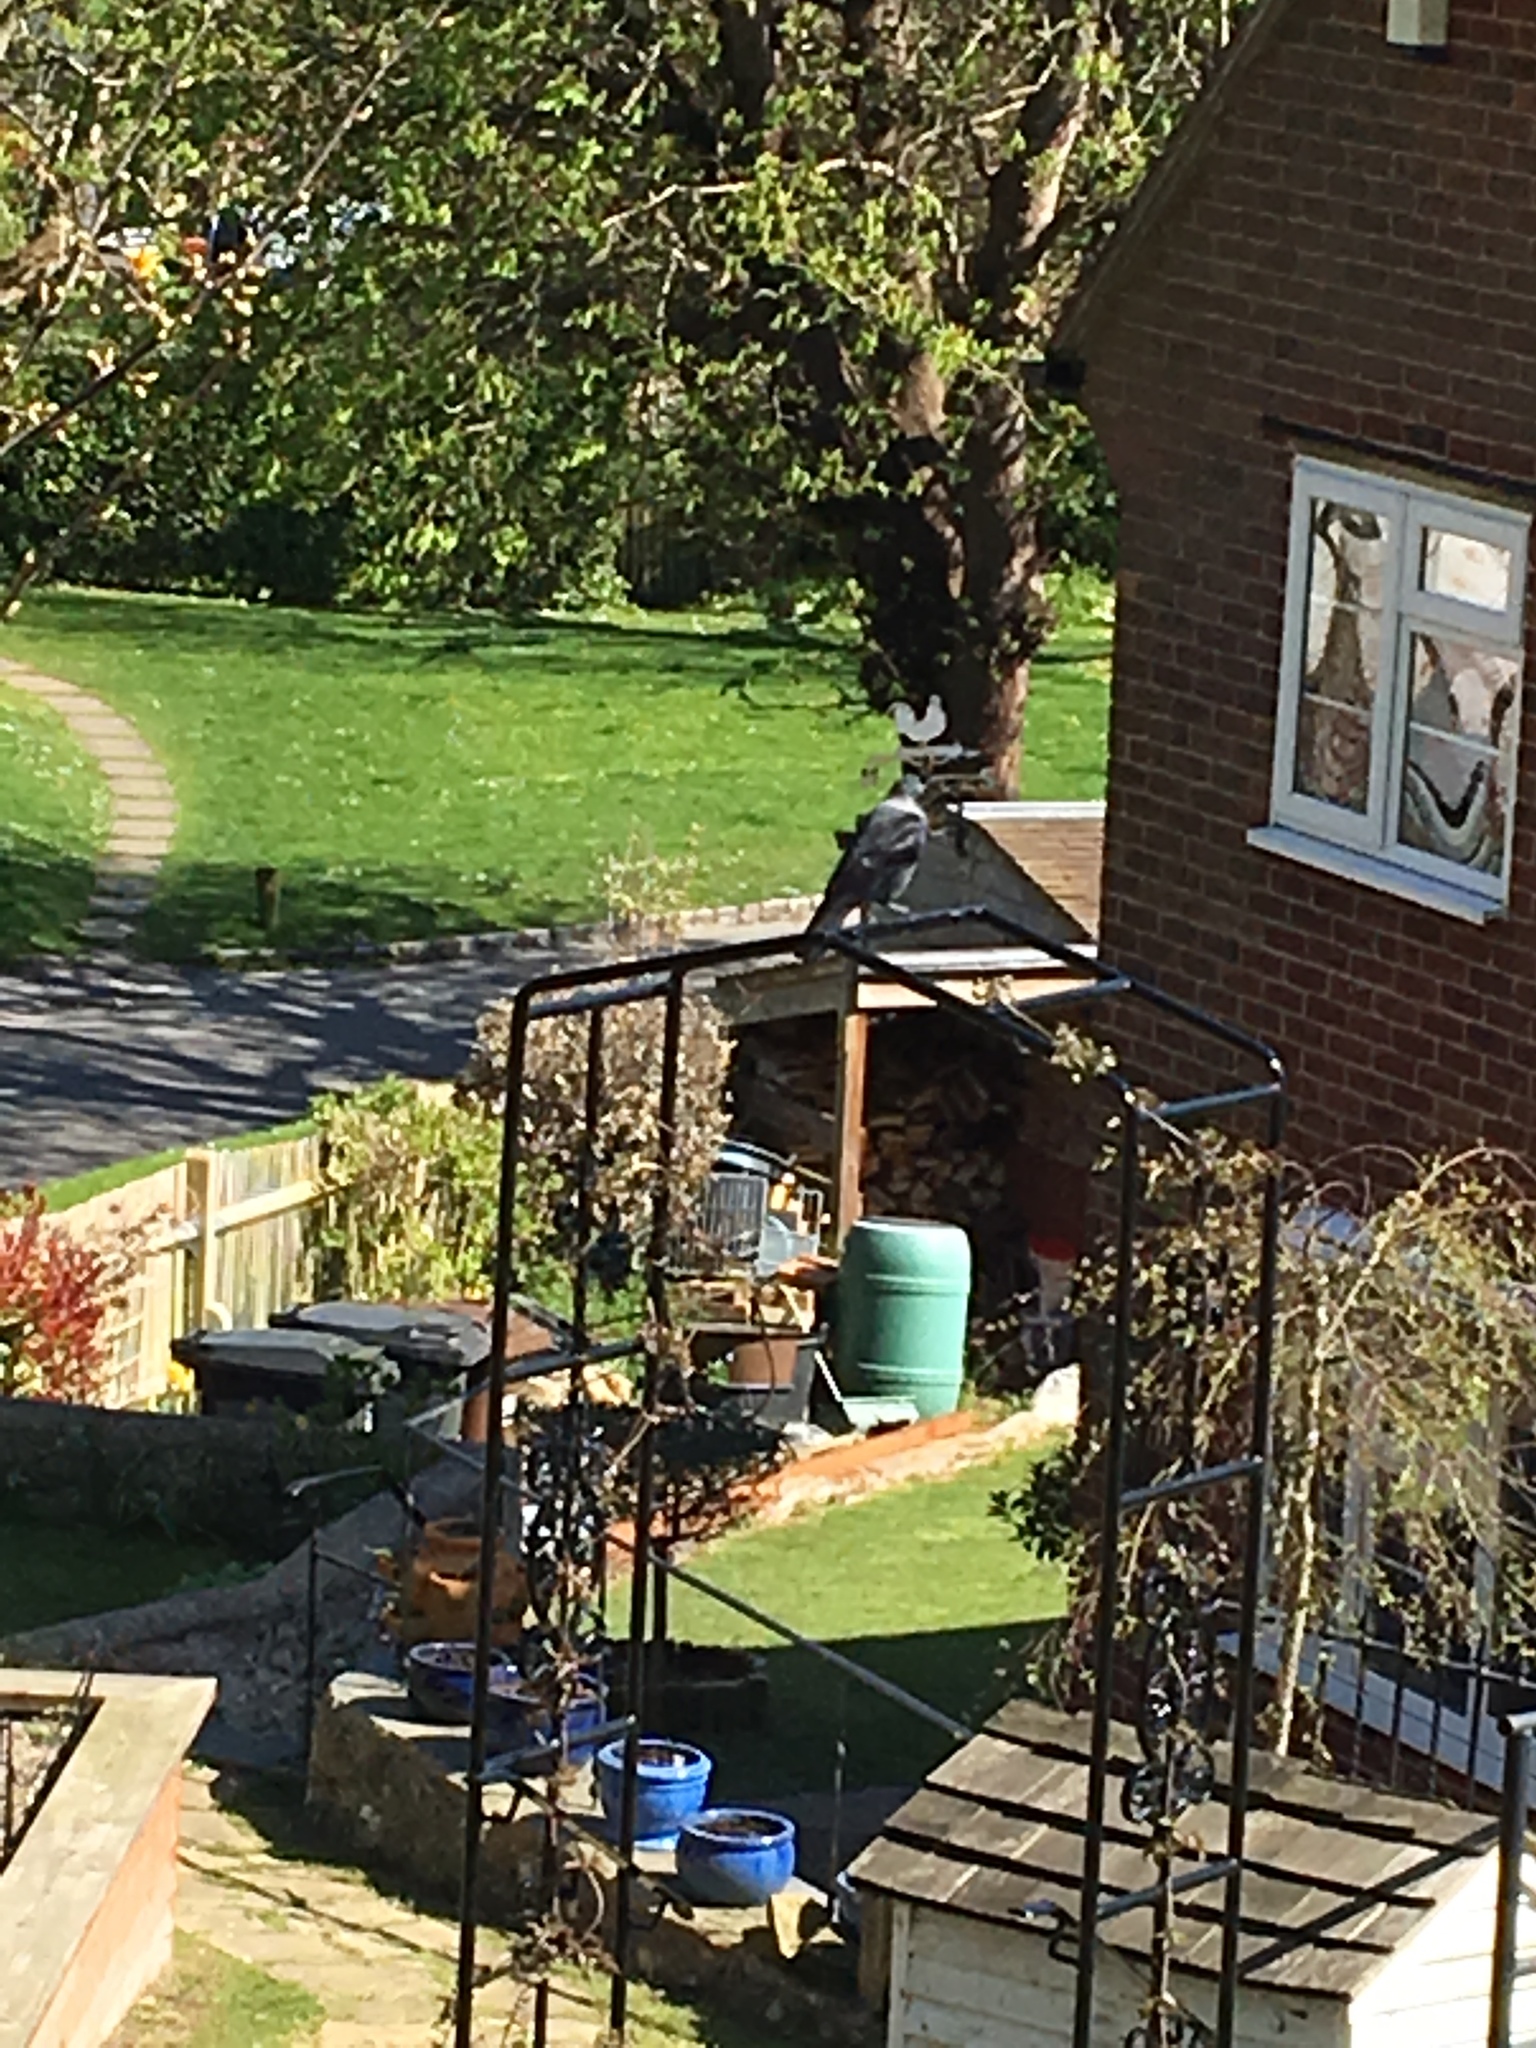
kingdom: Animalia
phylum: Chordata
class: Aves
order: Passeriformes
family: Corvidae
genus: Coloeus
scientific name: Coloeus monedula
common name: Western jackdaw
